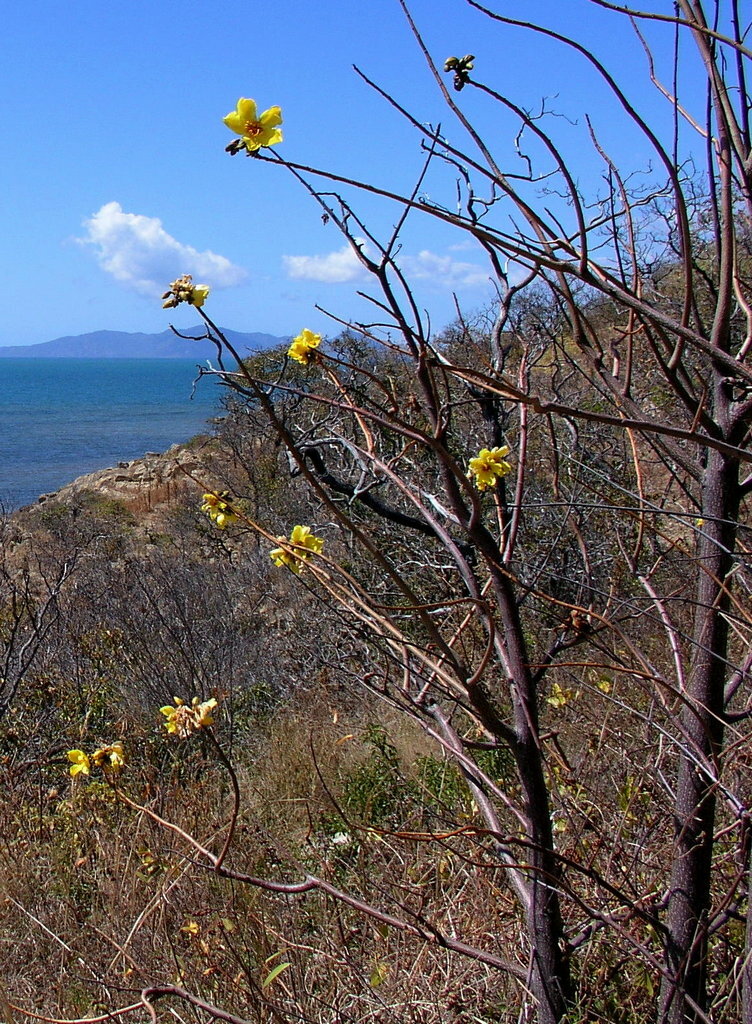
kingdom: Plantae
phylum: Tracheophyta
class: Magnoliopsida
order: Malvales
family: Cochlospermaceae
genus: Cochlospermum
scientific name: Cochlospermum gillivraei
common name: Cottontree
